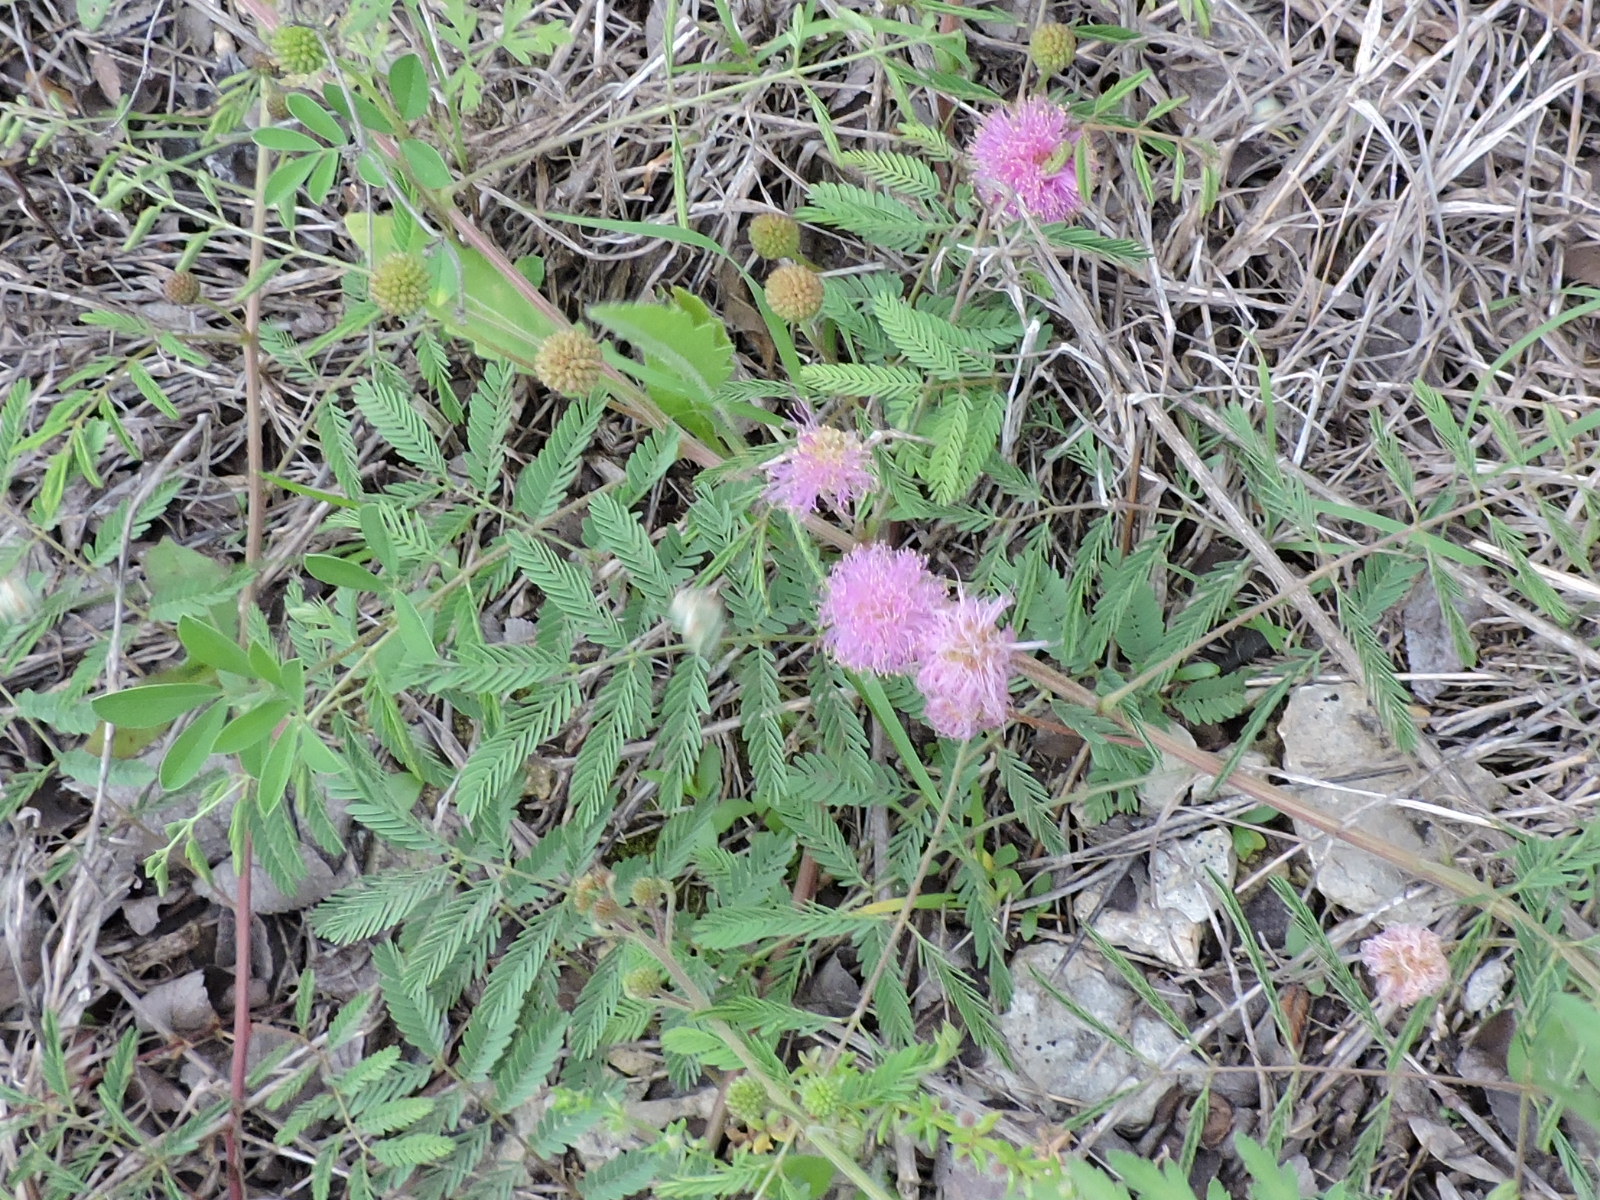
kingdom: Plantae
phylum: Tracheophyta
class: Magnoliopsida
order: Fabales
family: Fabaceae
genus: Mimosa
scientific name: Mimosa quadrivalvis
